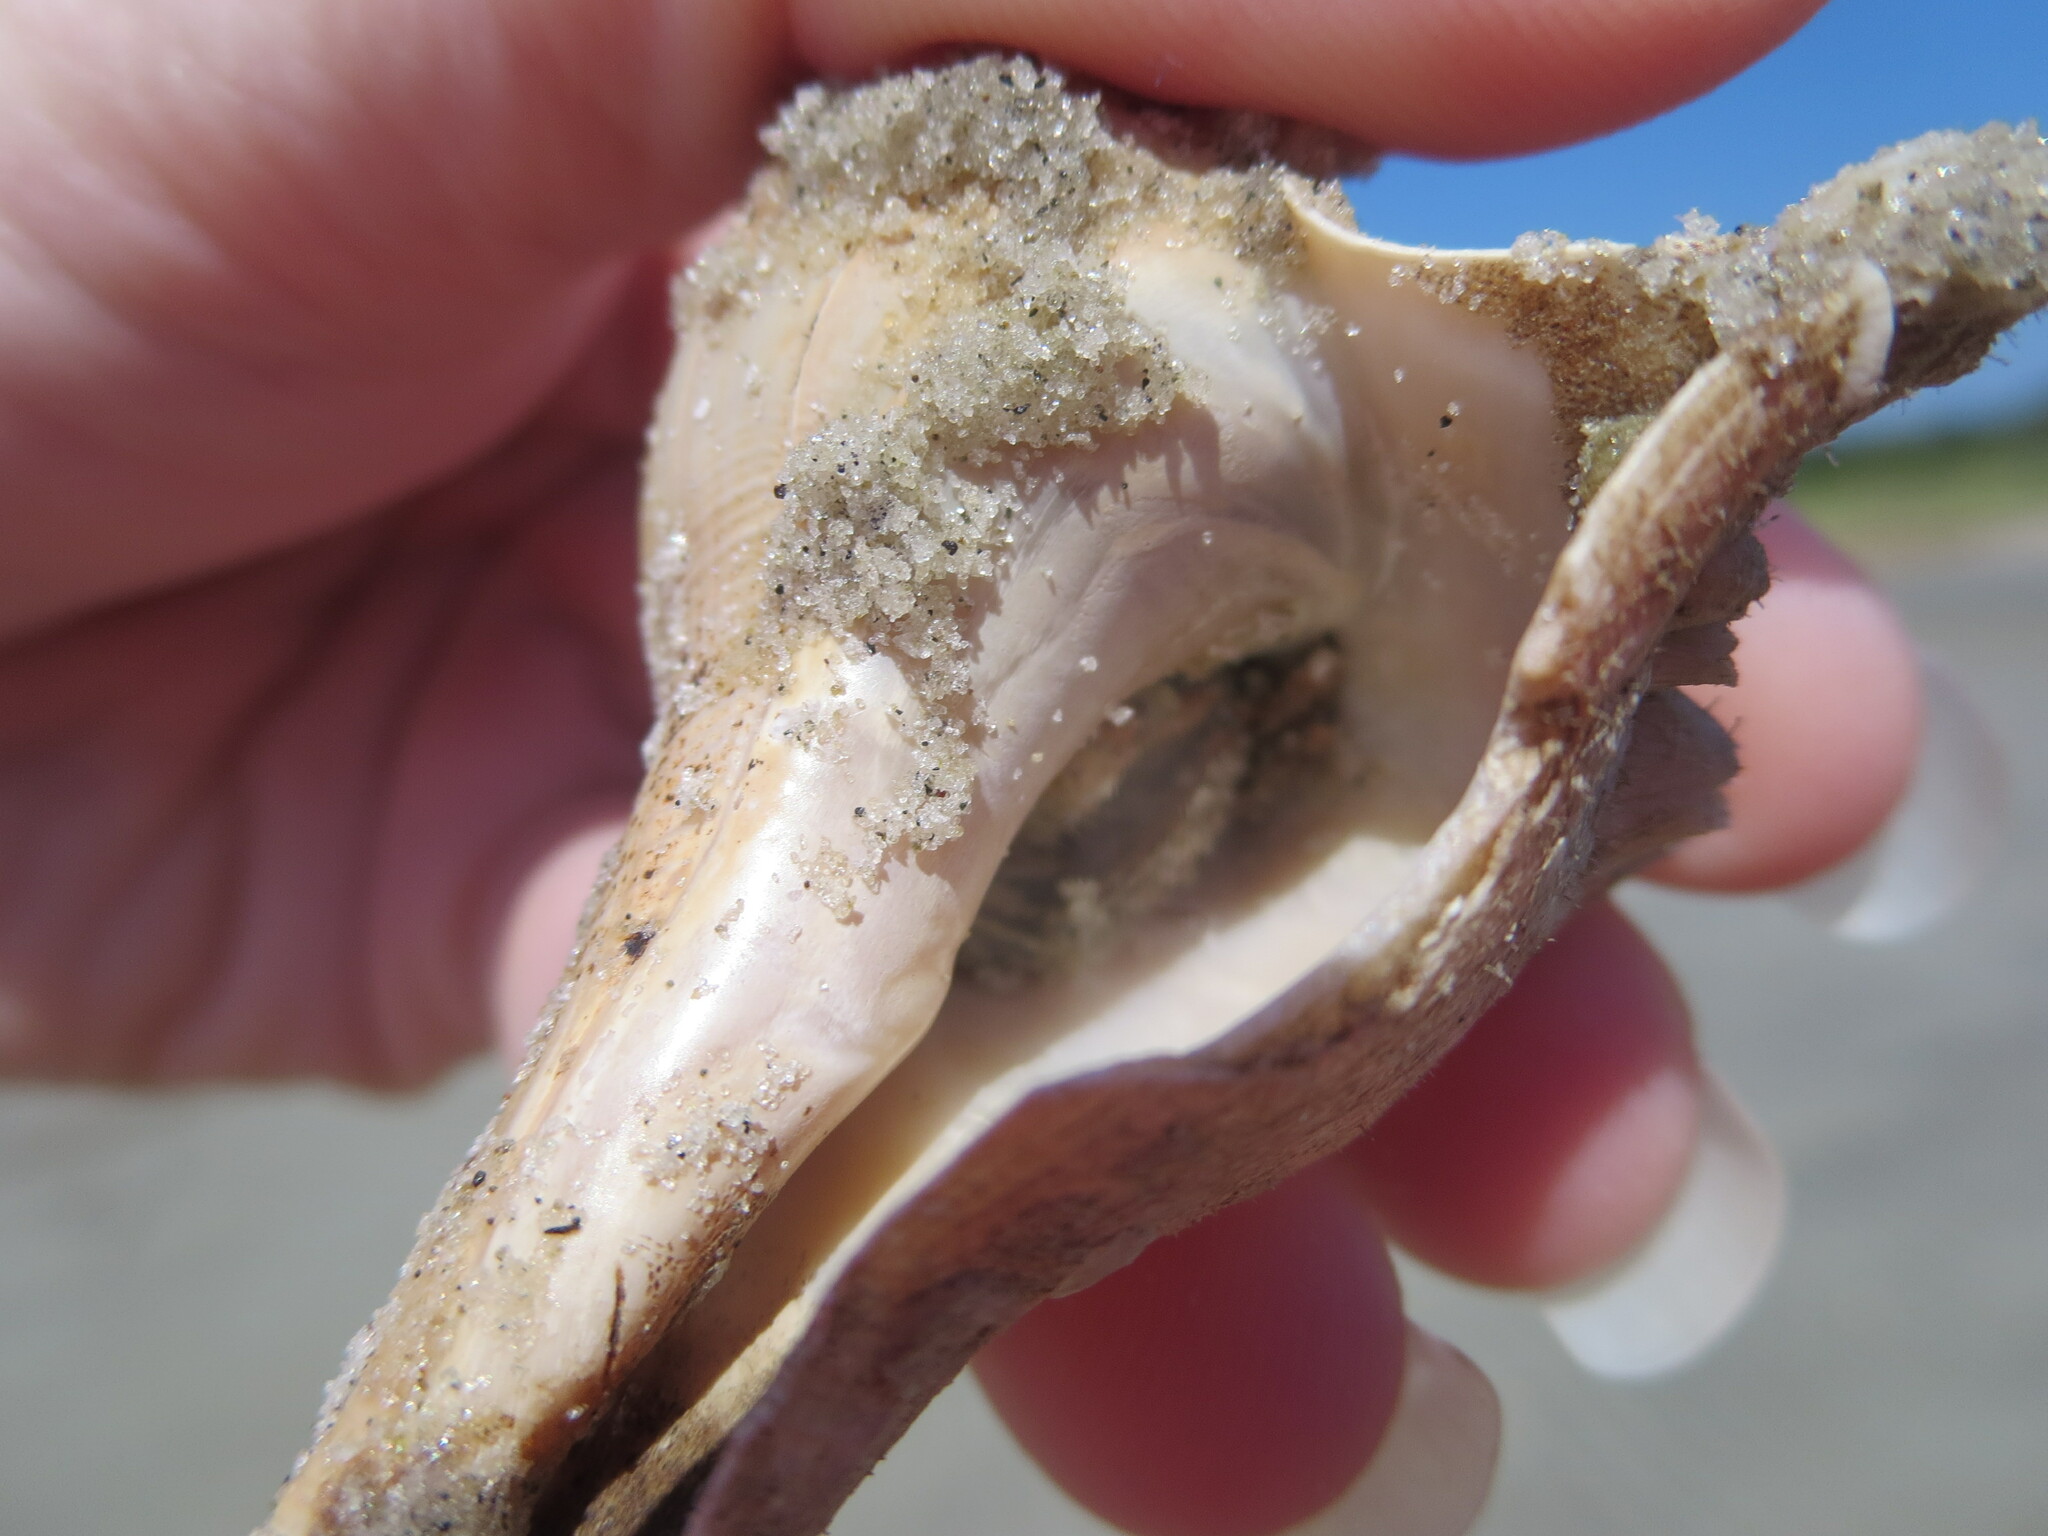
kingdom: Animalia
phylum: Arthropoda
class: Malacostraca
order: Decapoda
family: Diogenidae
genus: Clibanarius
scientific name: Clibanarius vittatus
